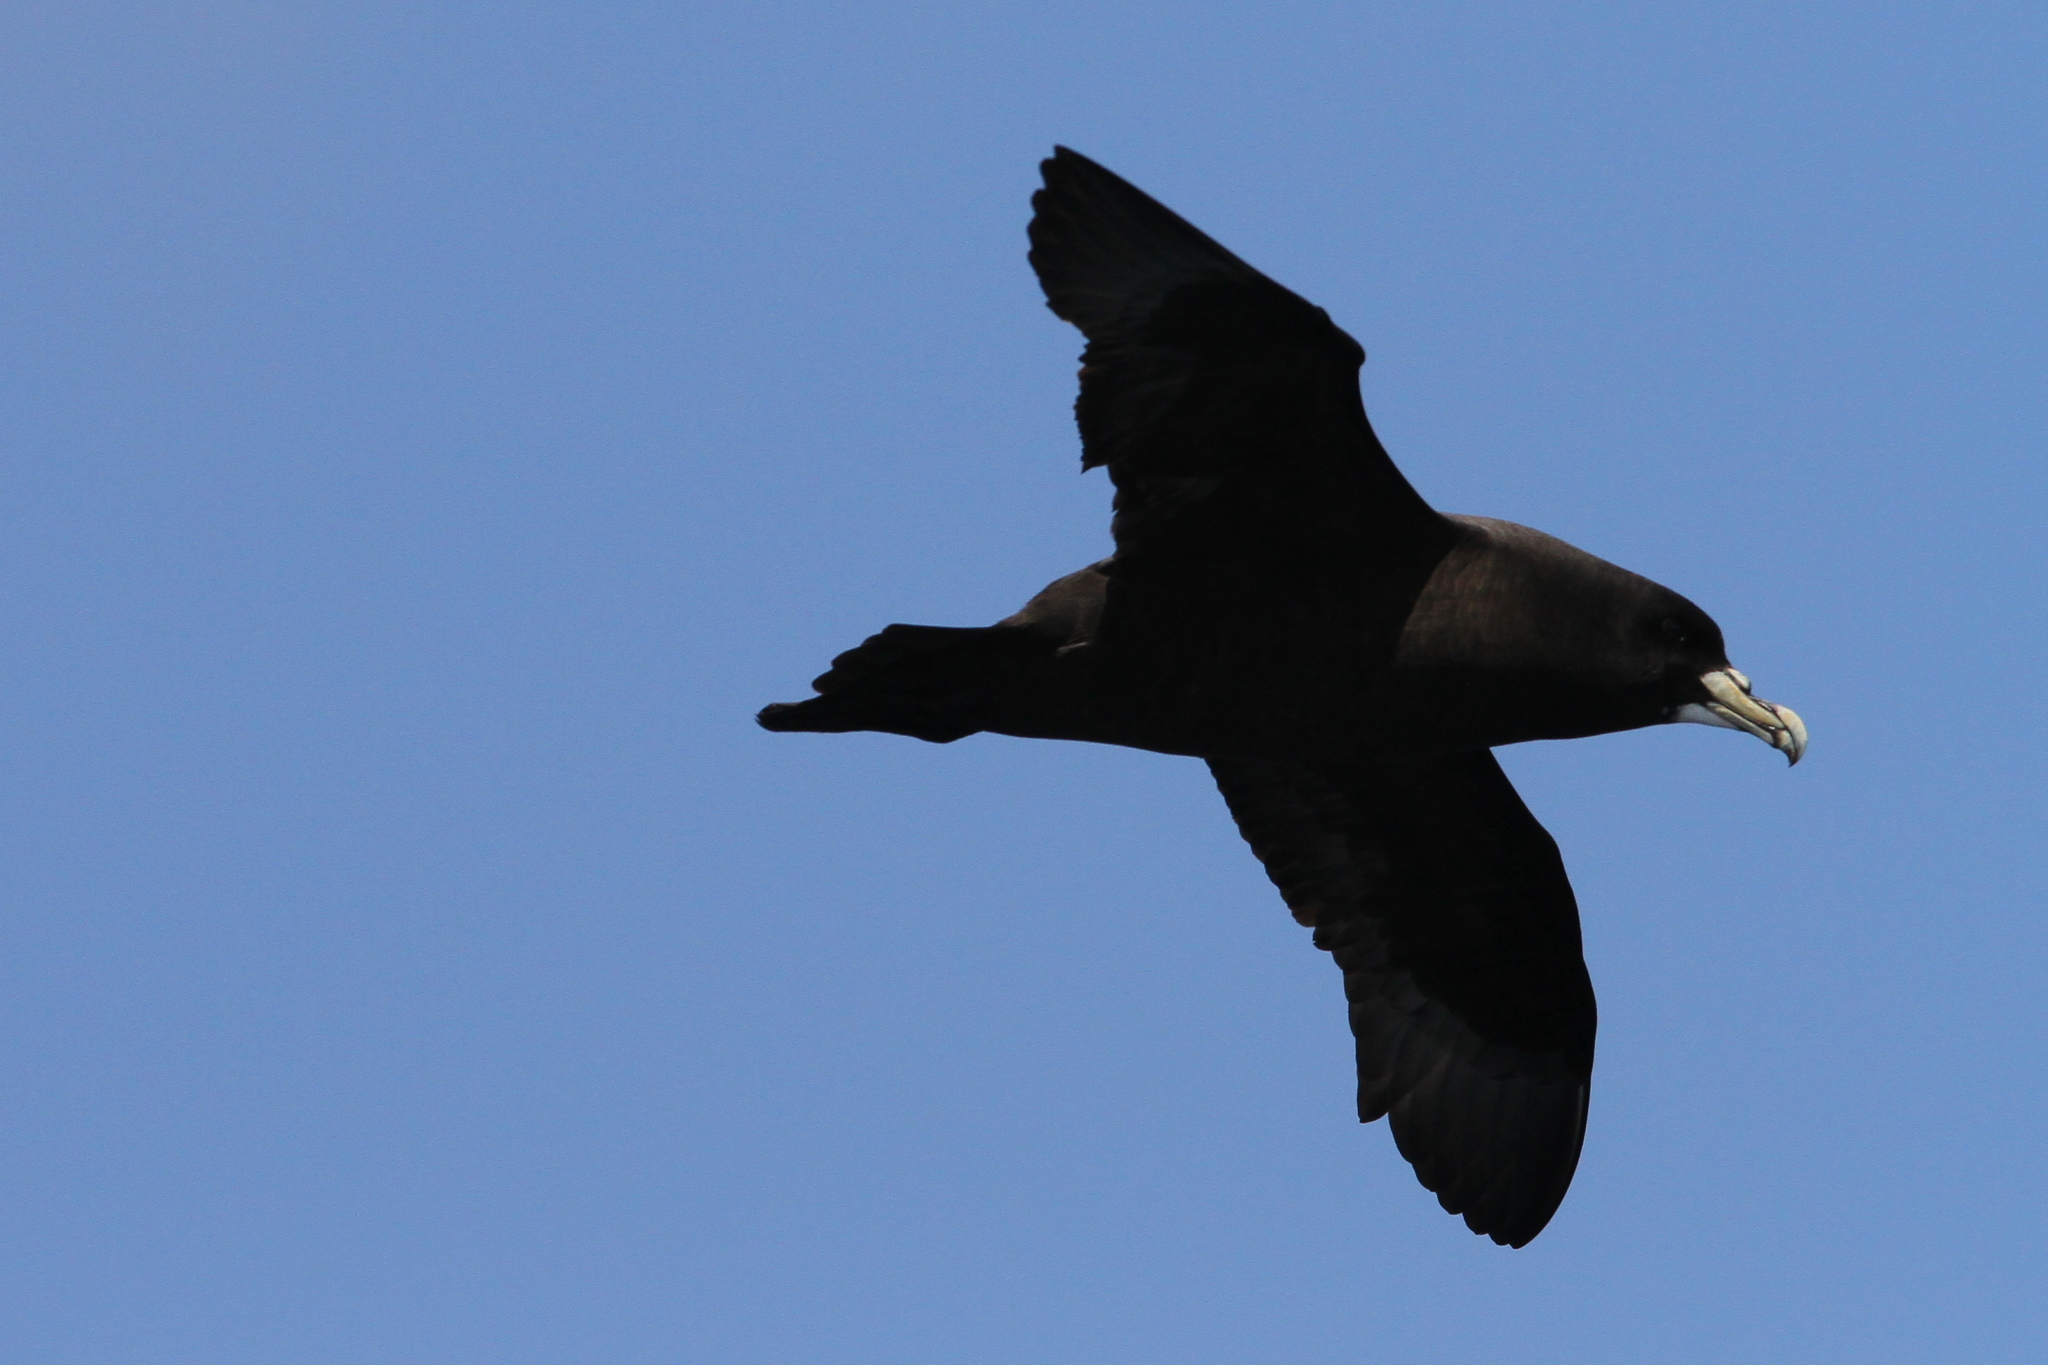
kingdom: Animalia
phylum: Chordata
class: Aves
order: Procellariiformes
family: Procellariidae
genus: Procellaria
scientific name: Procellaria aequinoctialis
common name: White-chinned petrel
